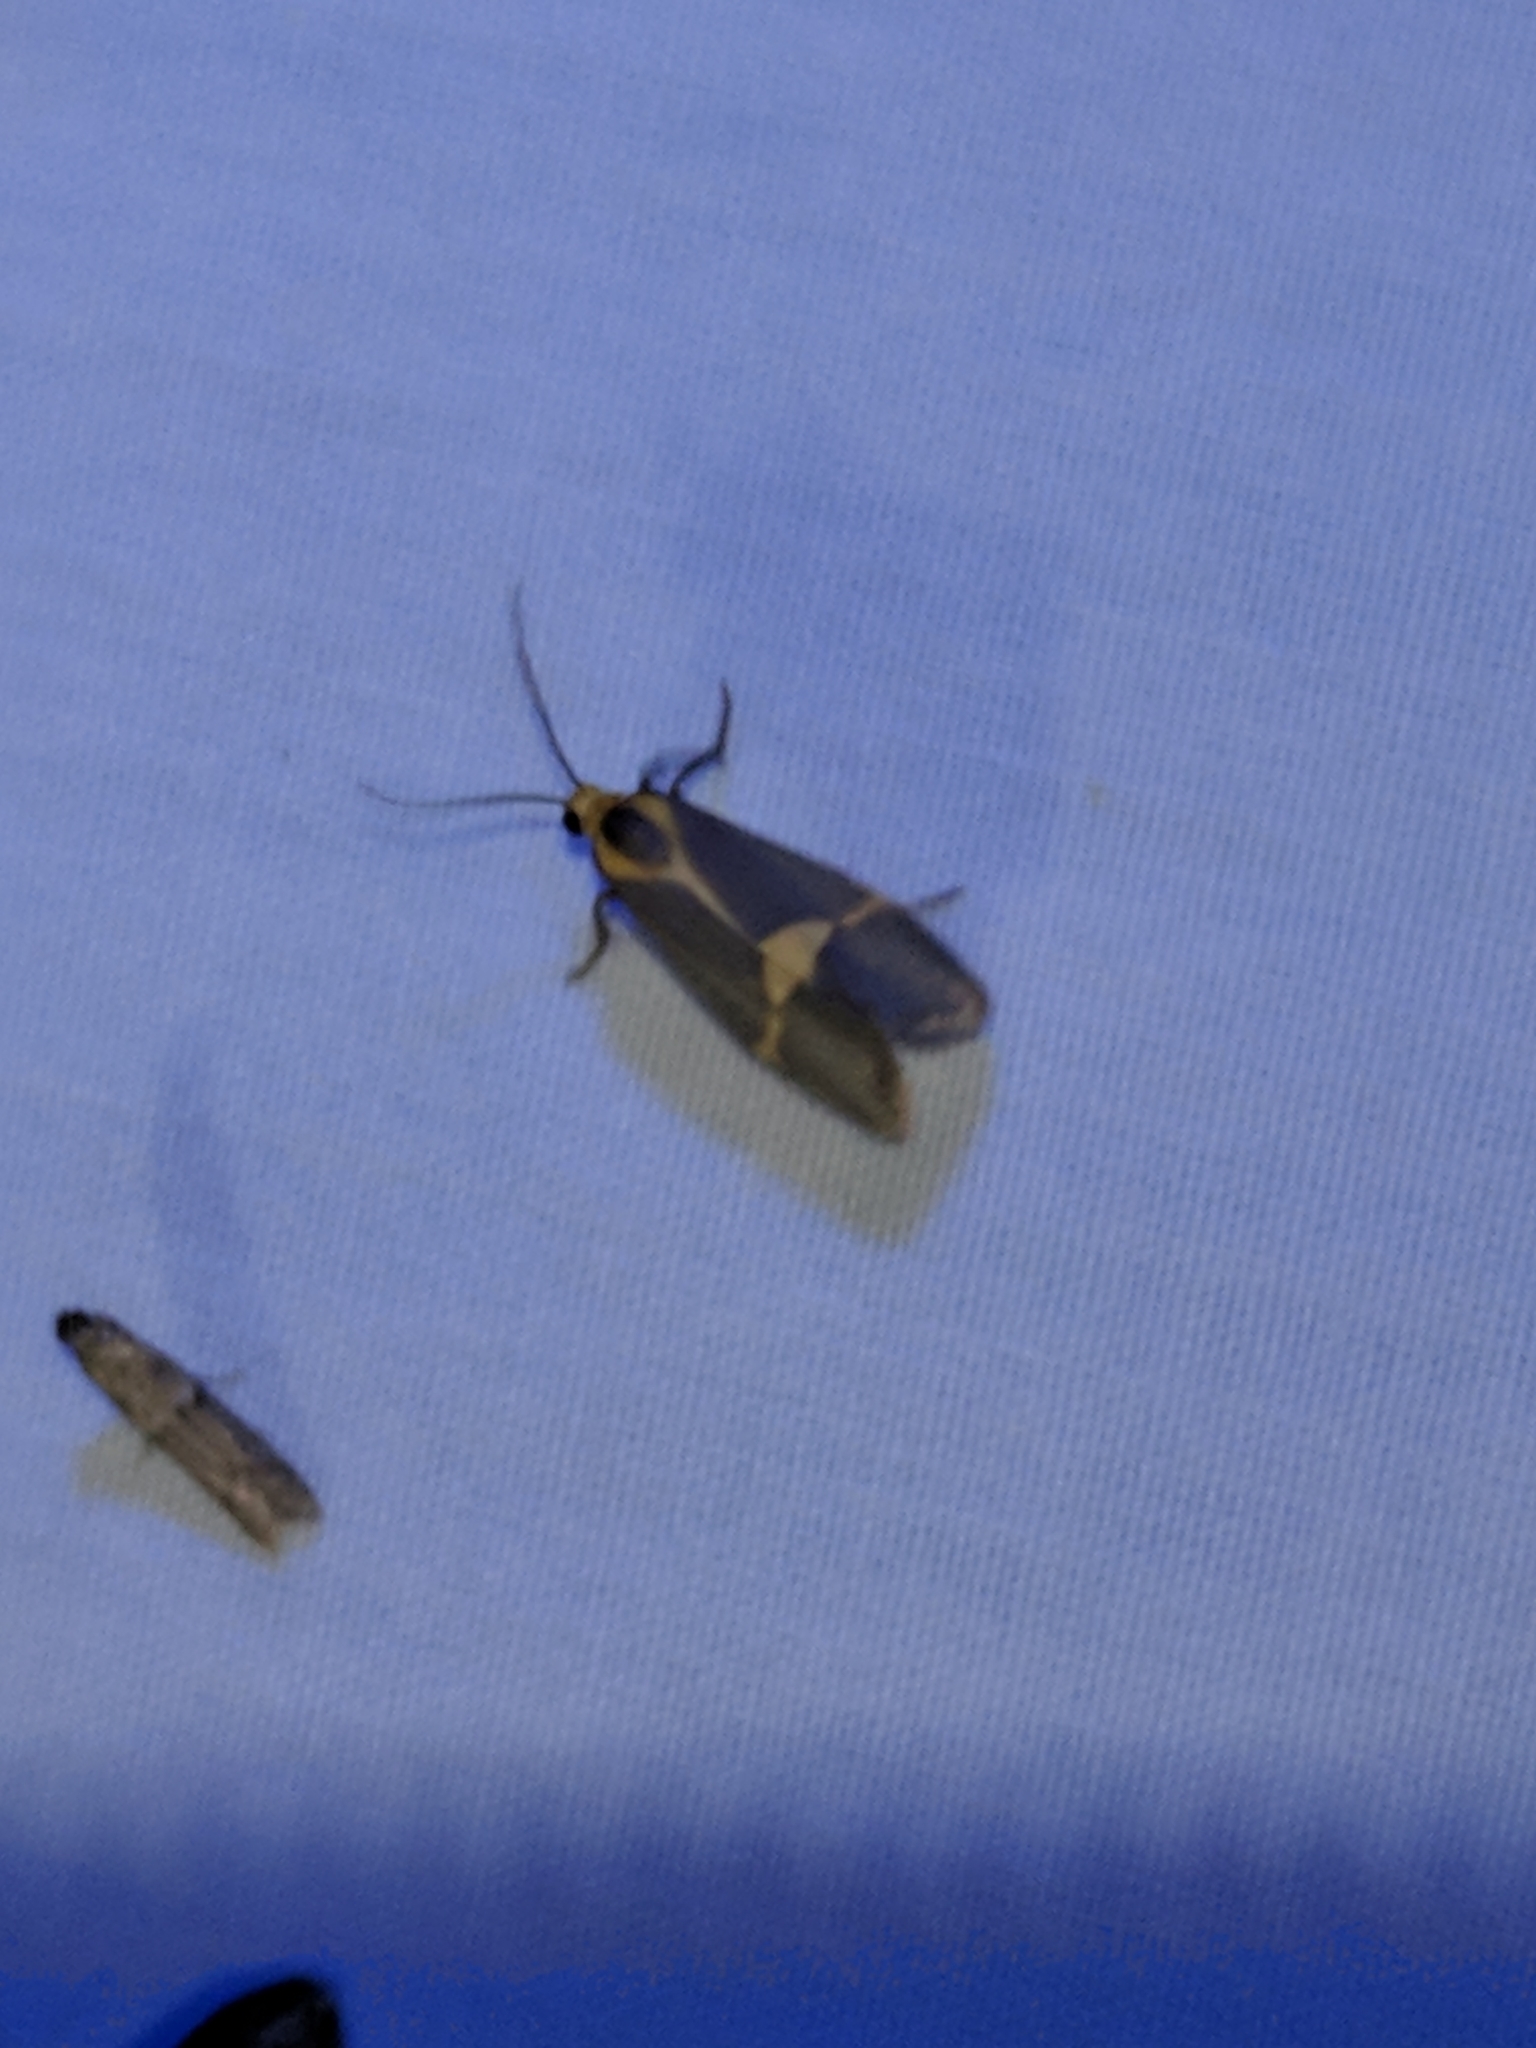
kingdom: Animalia
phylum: Arthropoda
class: Insecta
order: Lepidoptera
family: Erebidae
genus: Cisthene
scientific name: Cisthene tenuifascia
